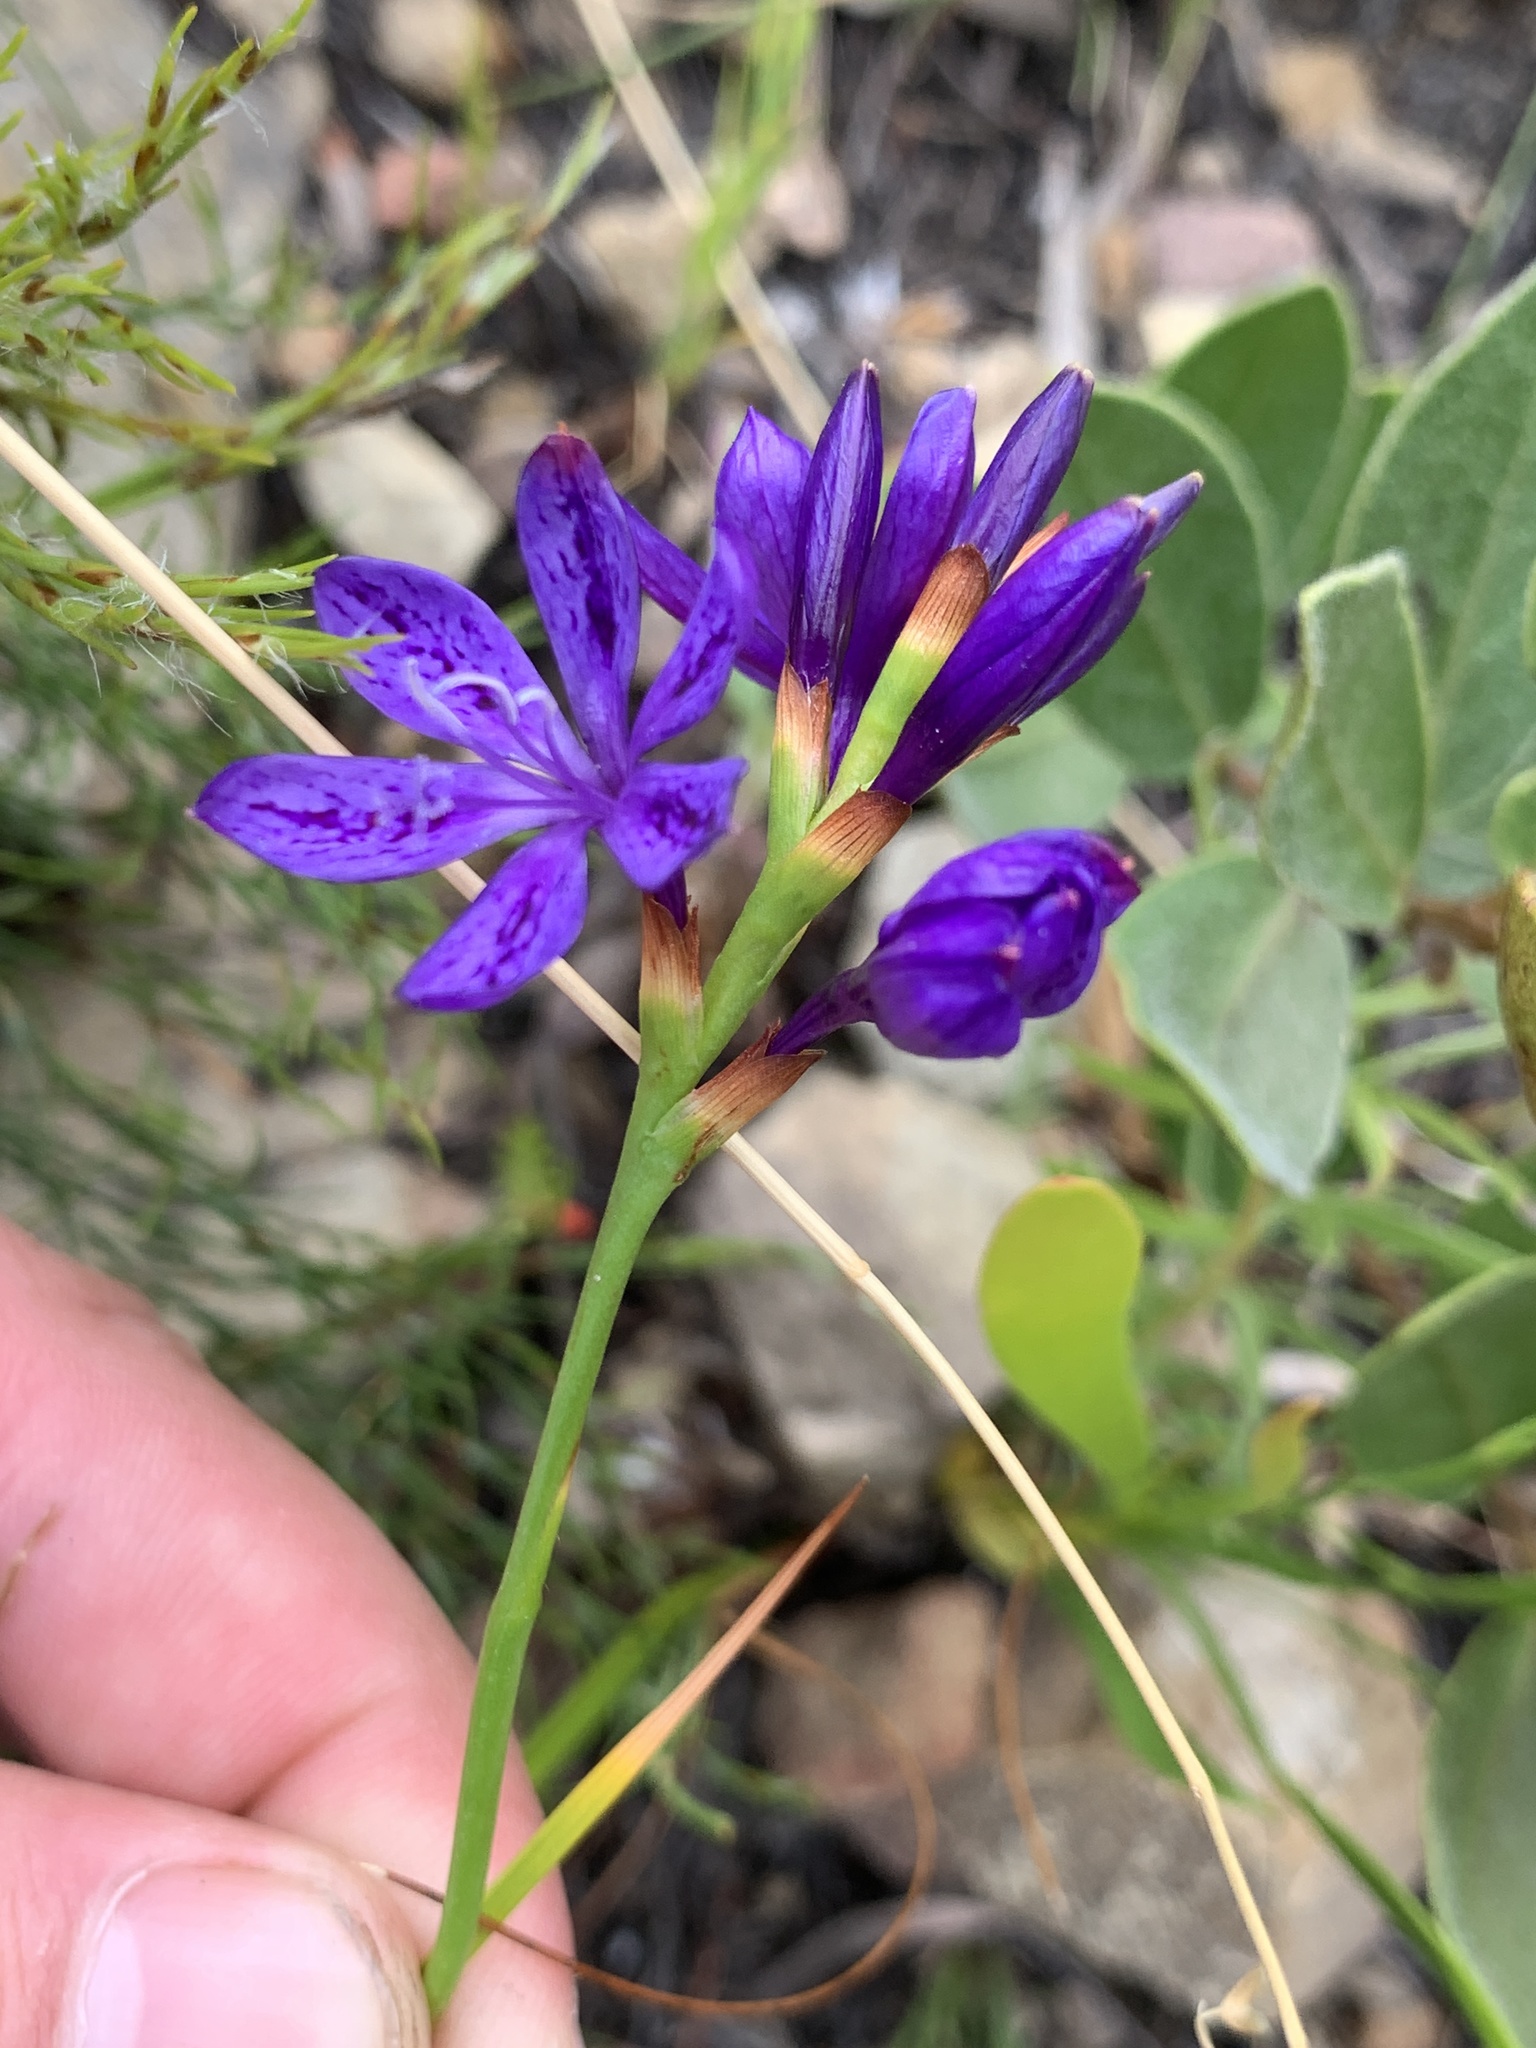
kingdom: Plantae
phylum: Tracheophyta
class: Liliopsida
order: Asparagales
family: Iridaceae
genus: Thereianthus
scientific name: Thereianthus bracteolatus
